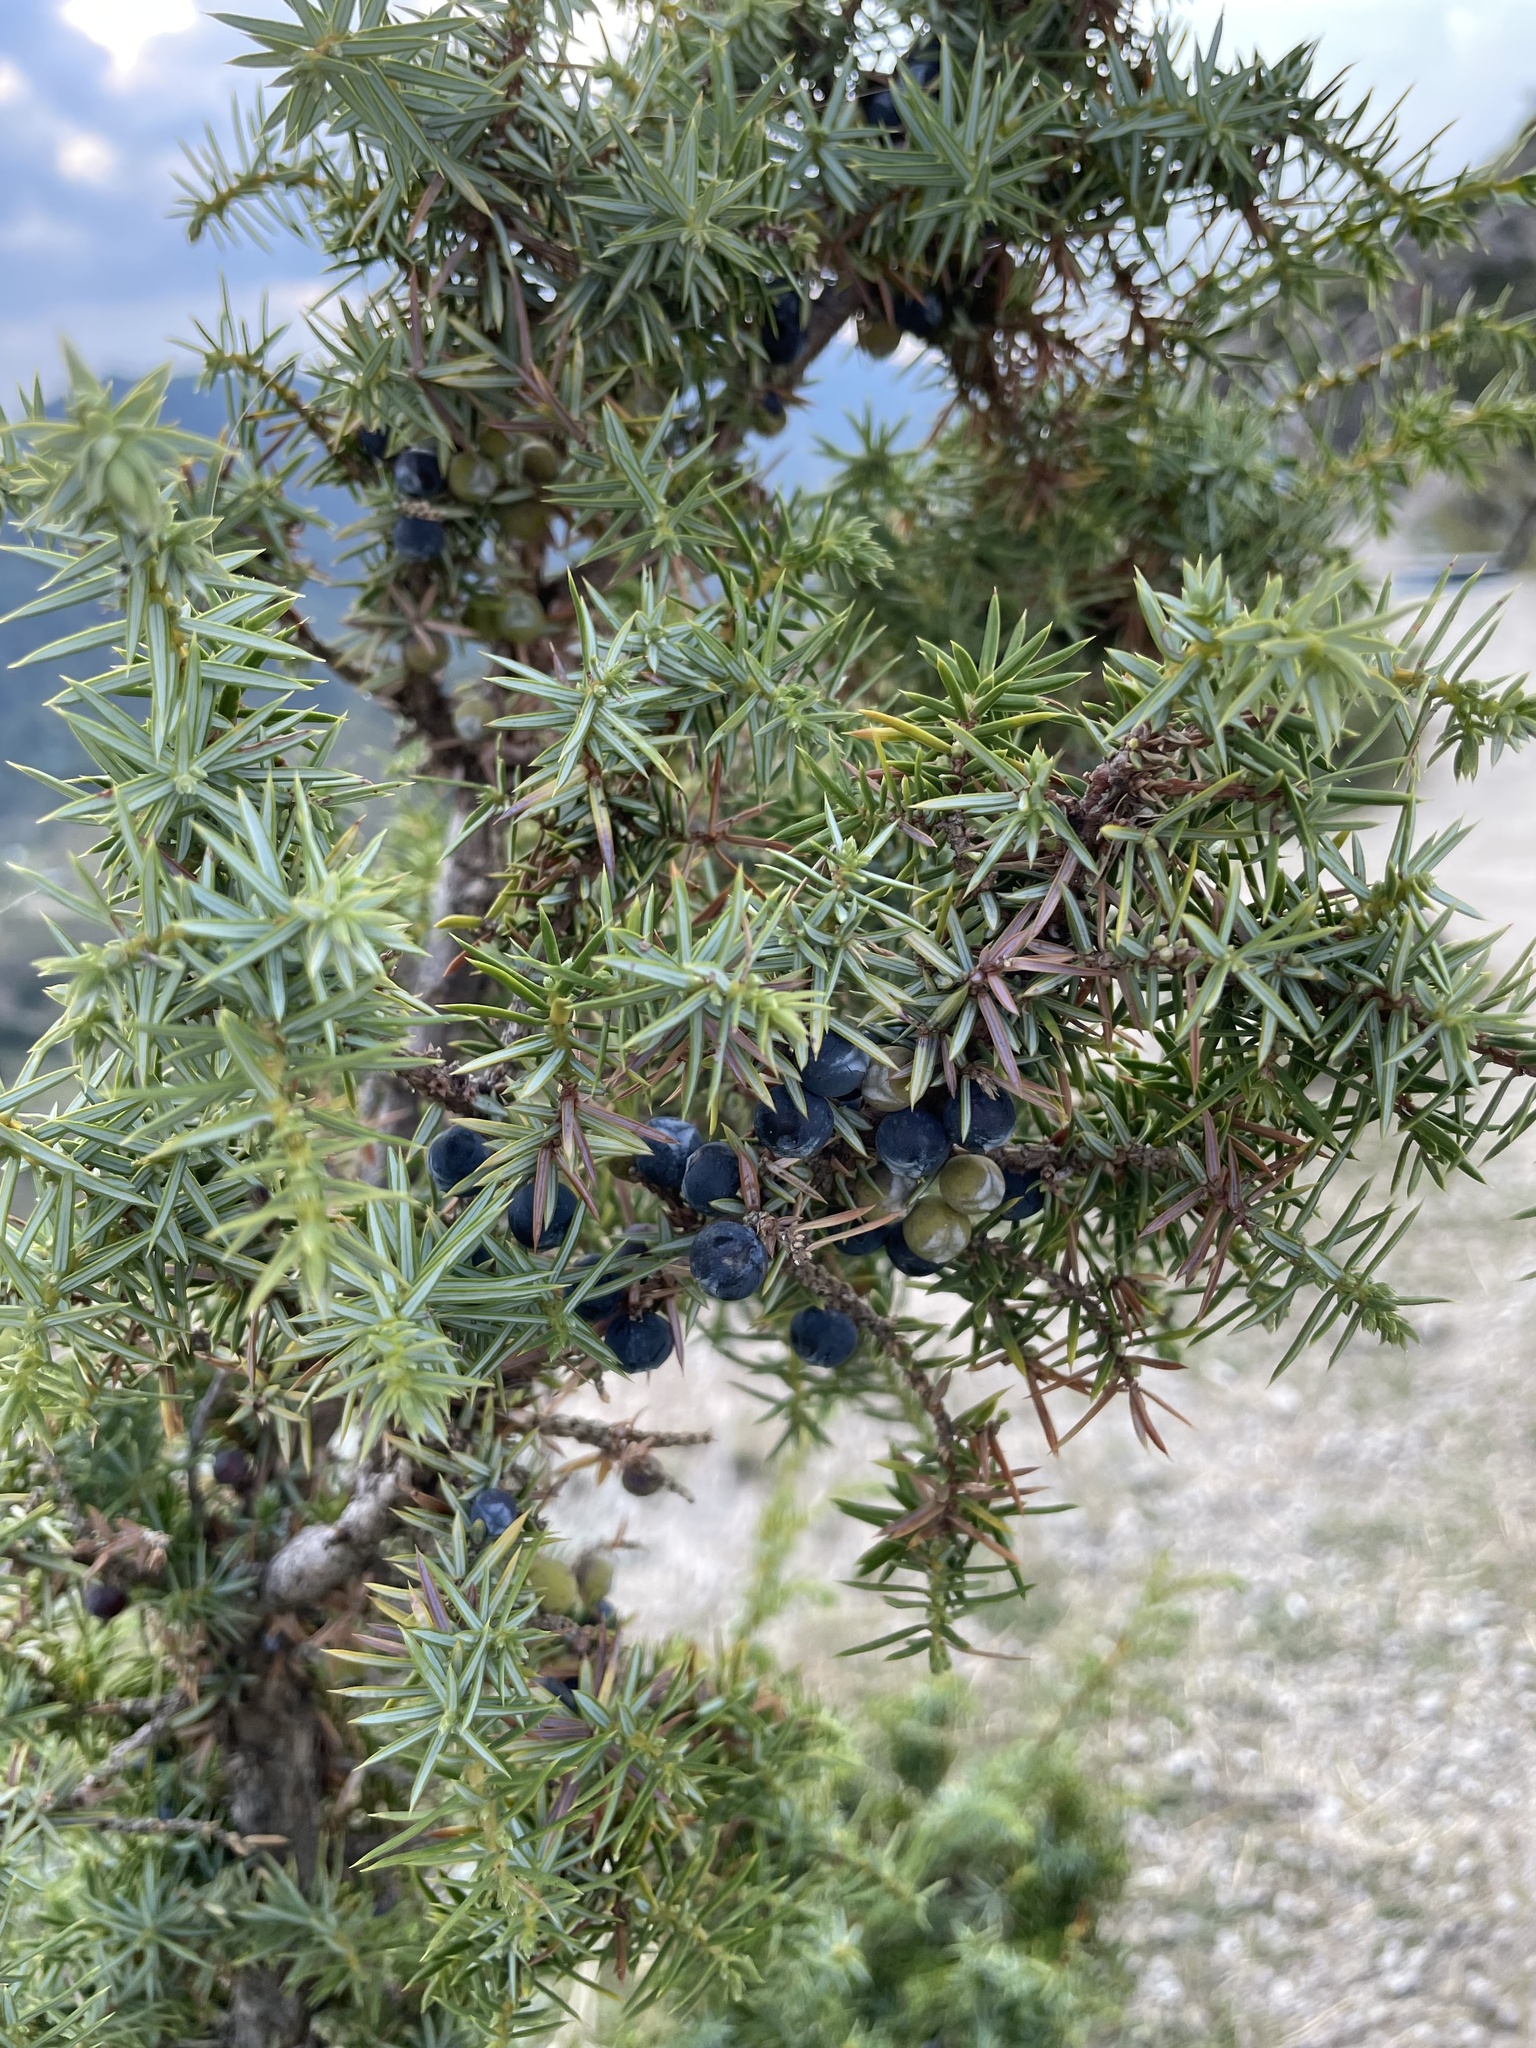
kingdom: Plantae
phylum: Tracheophyta
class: Pinopsida
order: Pinales
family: Cupressaceae
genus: Juniperus
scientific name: Juniperus communis
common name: Common juniper
